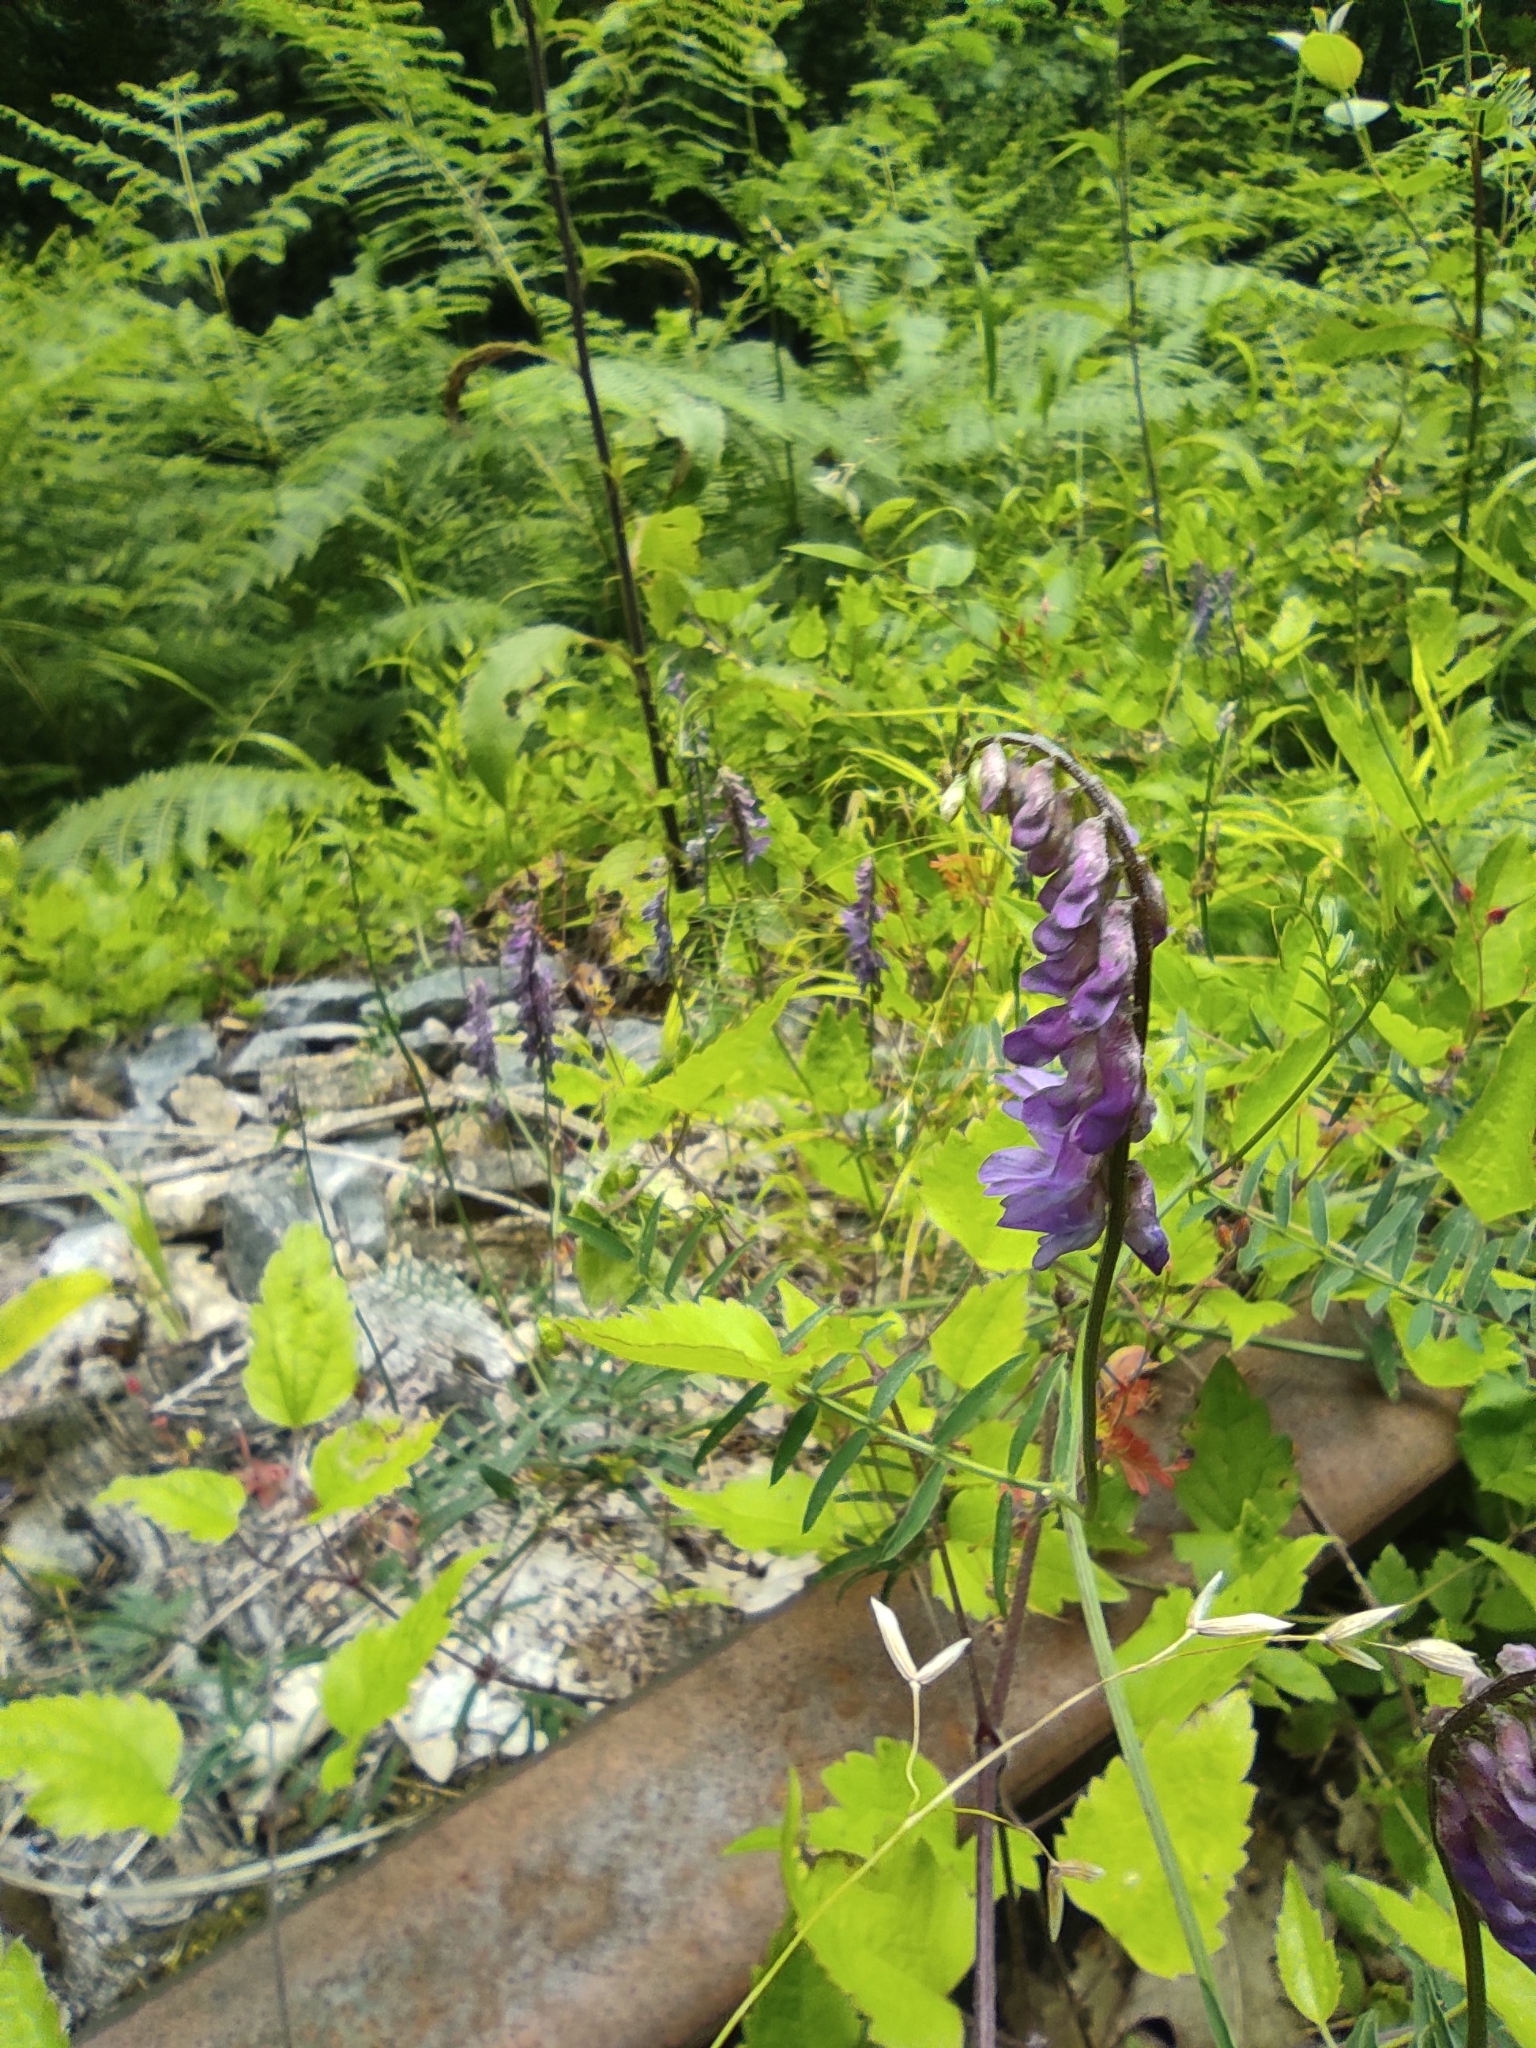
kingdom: Plantae
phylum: Tracheophyta
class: Magnoliopsida
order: Fabales
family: Fabaceae
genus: Vicia
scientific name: Vicia cracca
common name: Bird vetch
